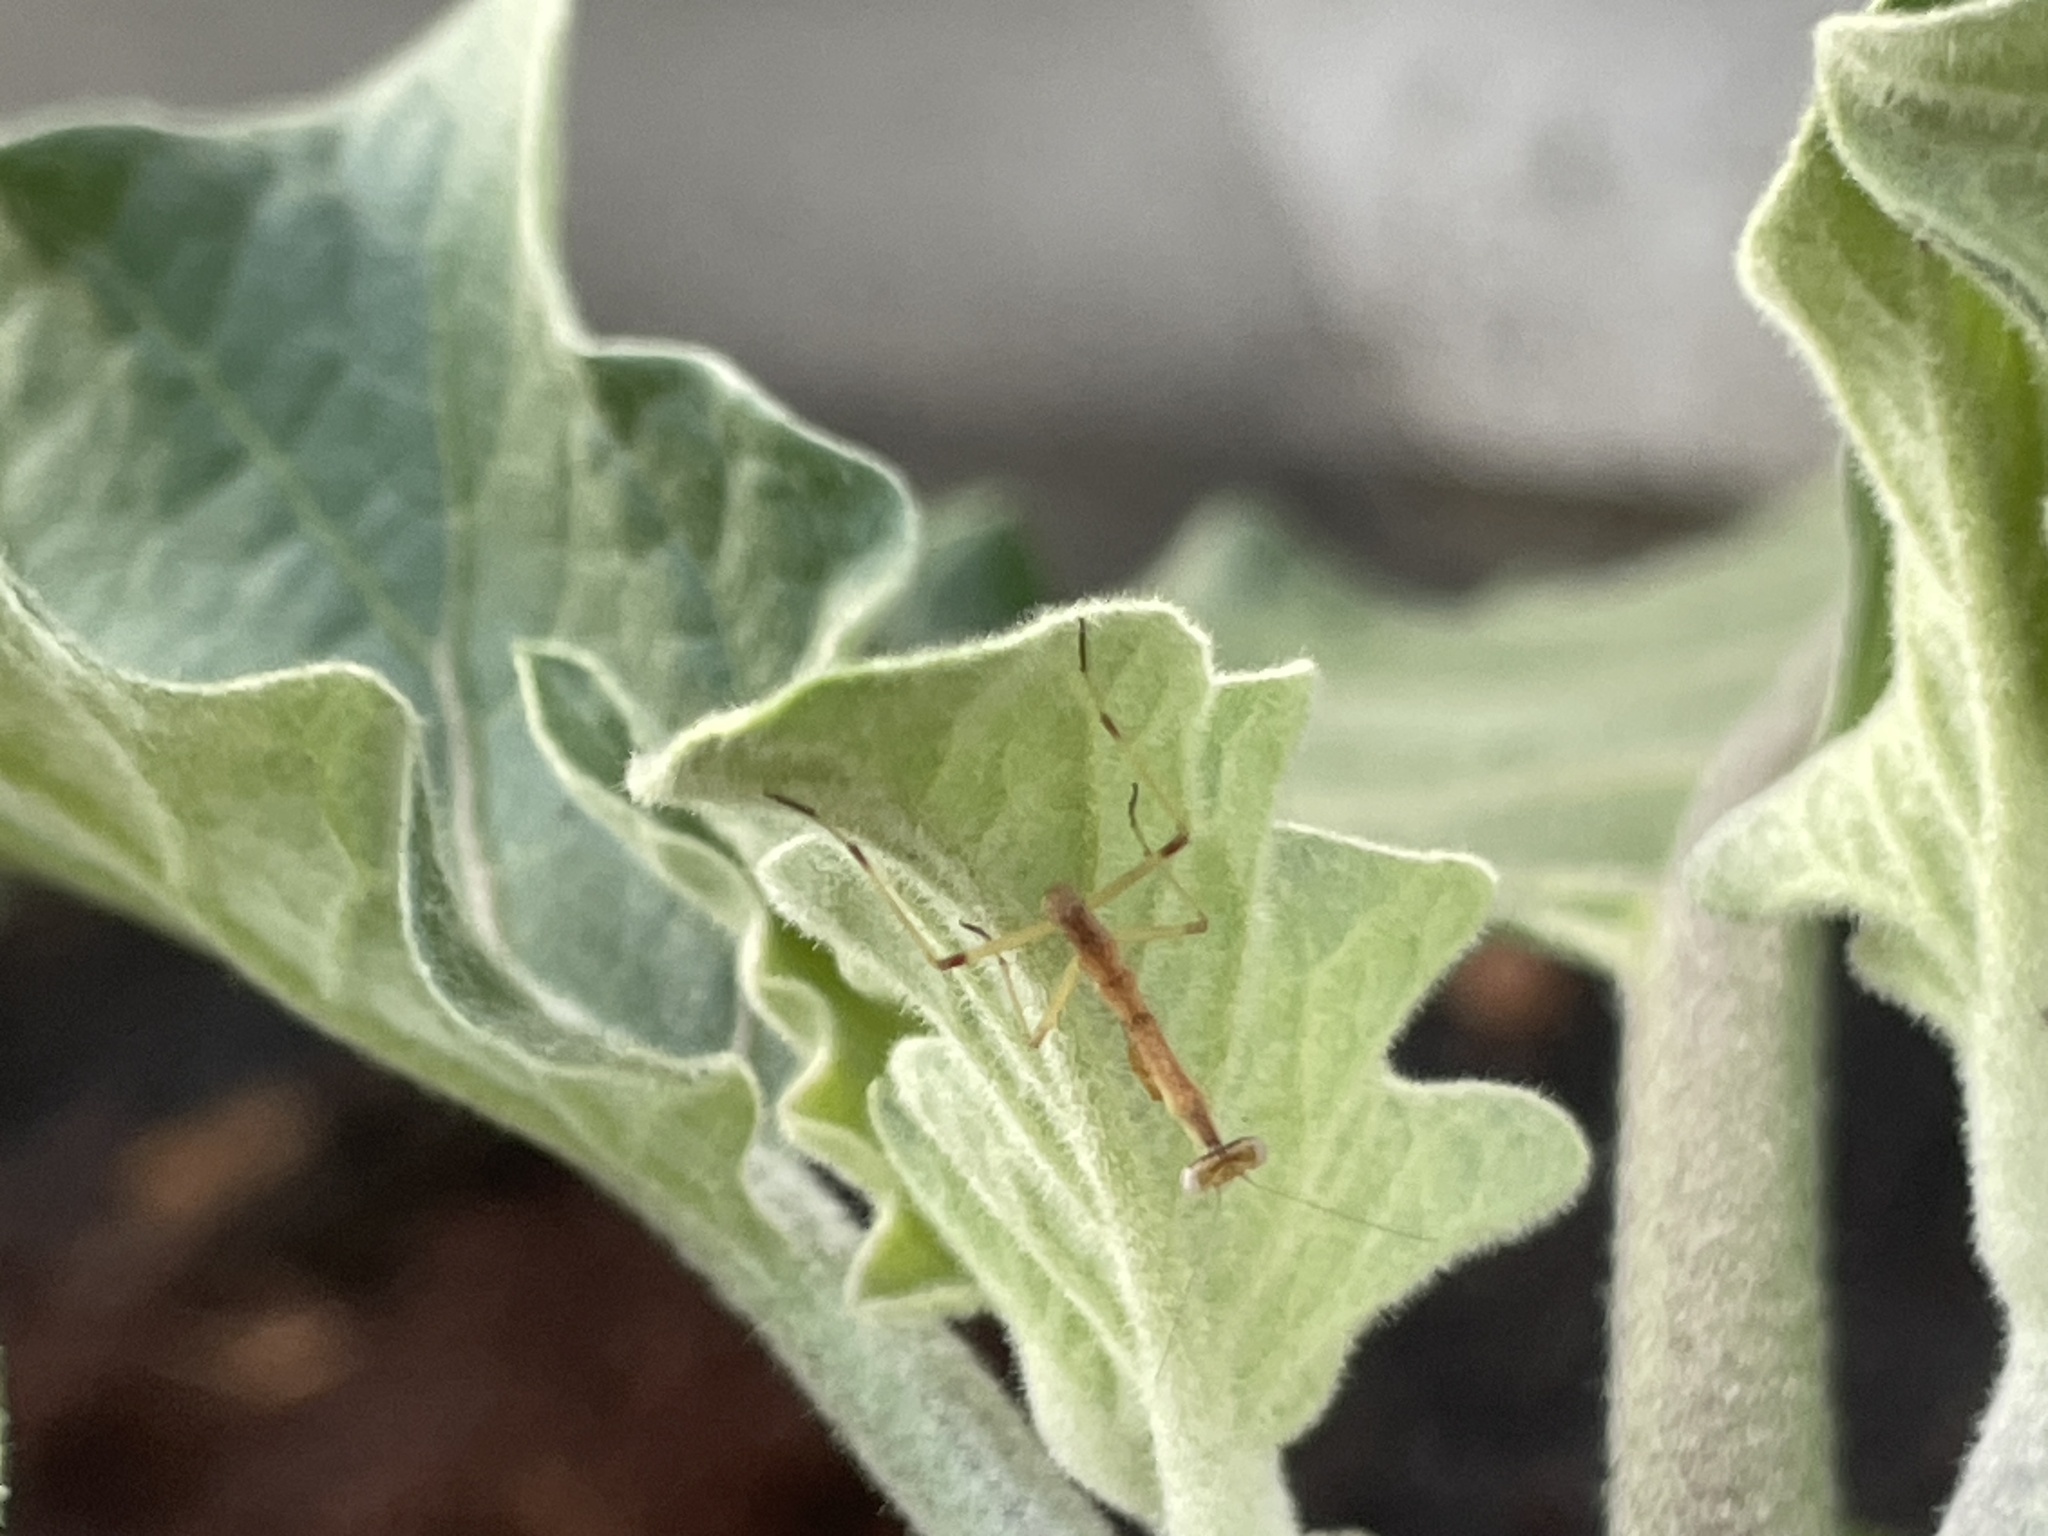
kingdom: Animalia
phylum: Arthropoda
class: Insecta
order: Mantodea
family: Mantidae
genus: Stagmomantis
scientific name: Stagmomantis carolina
